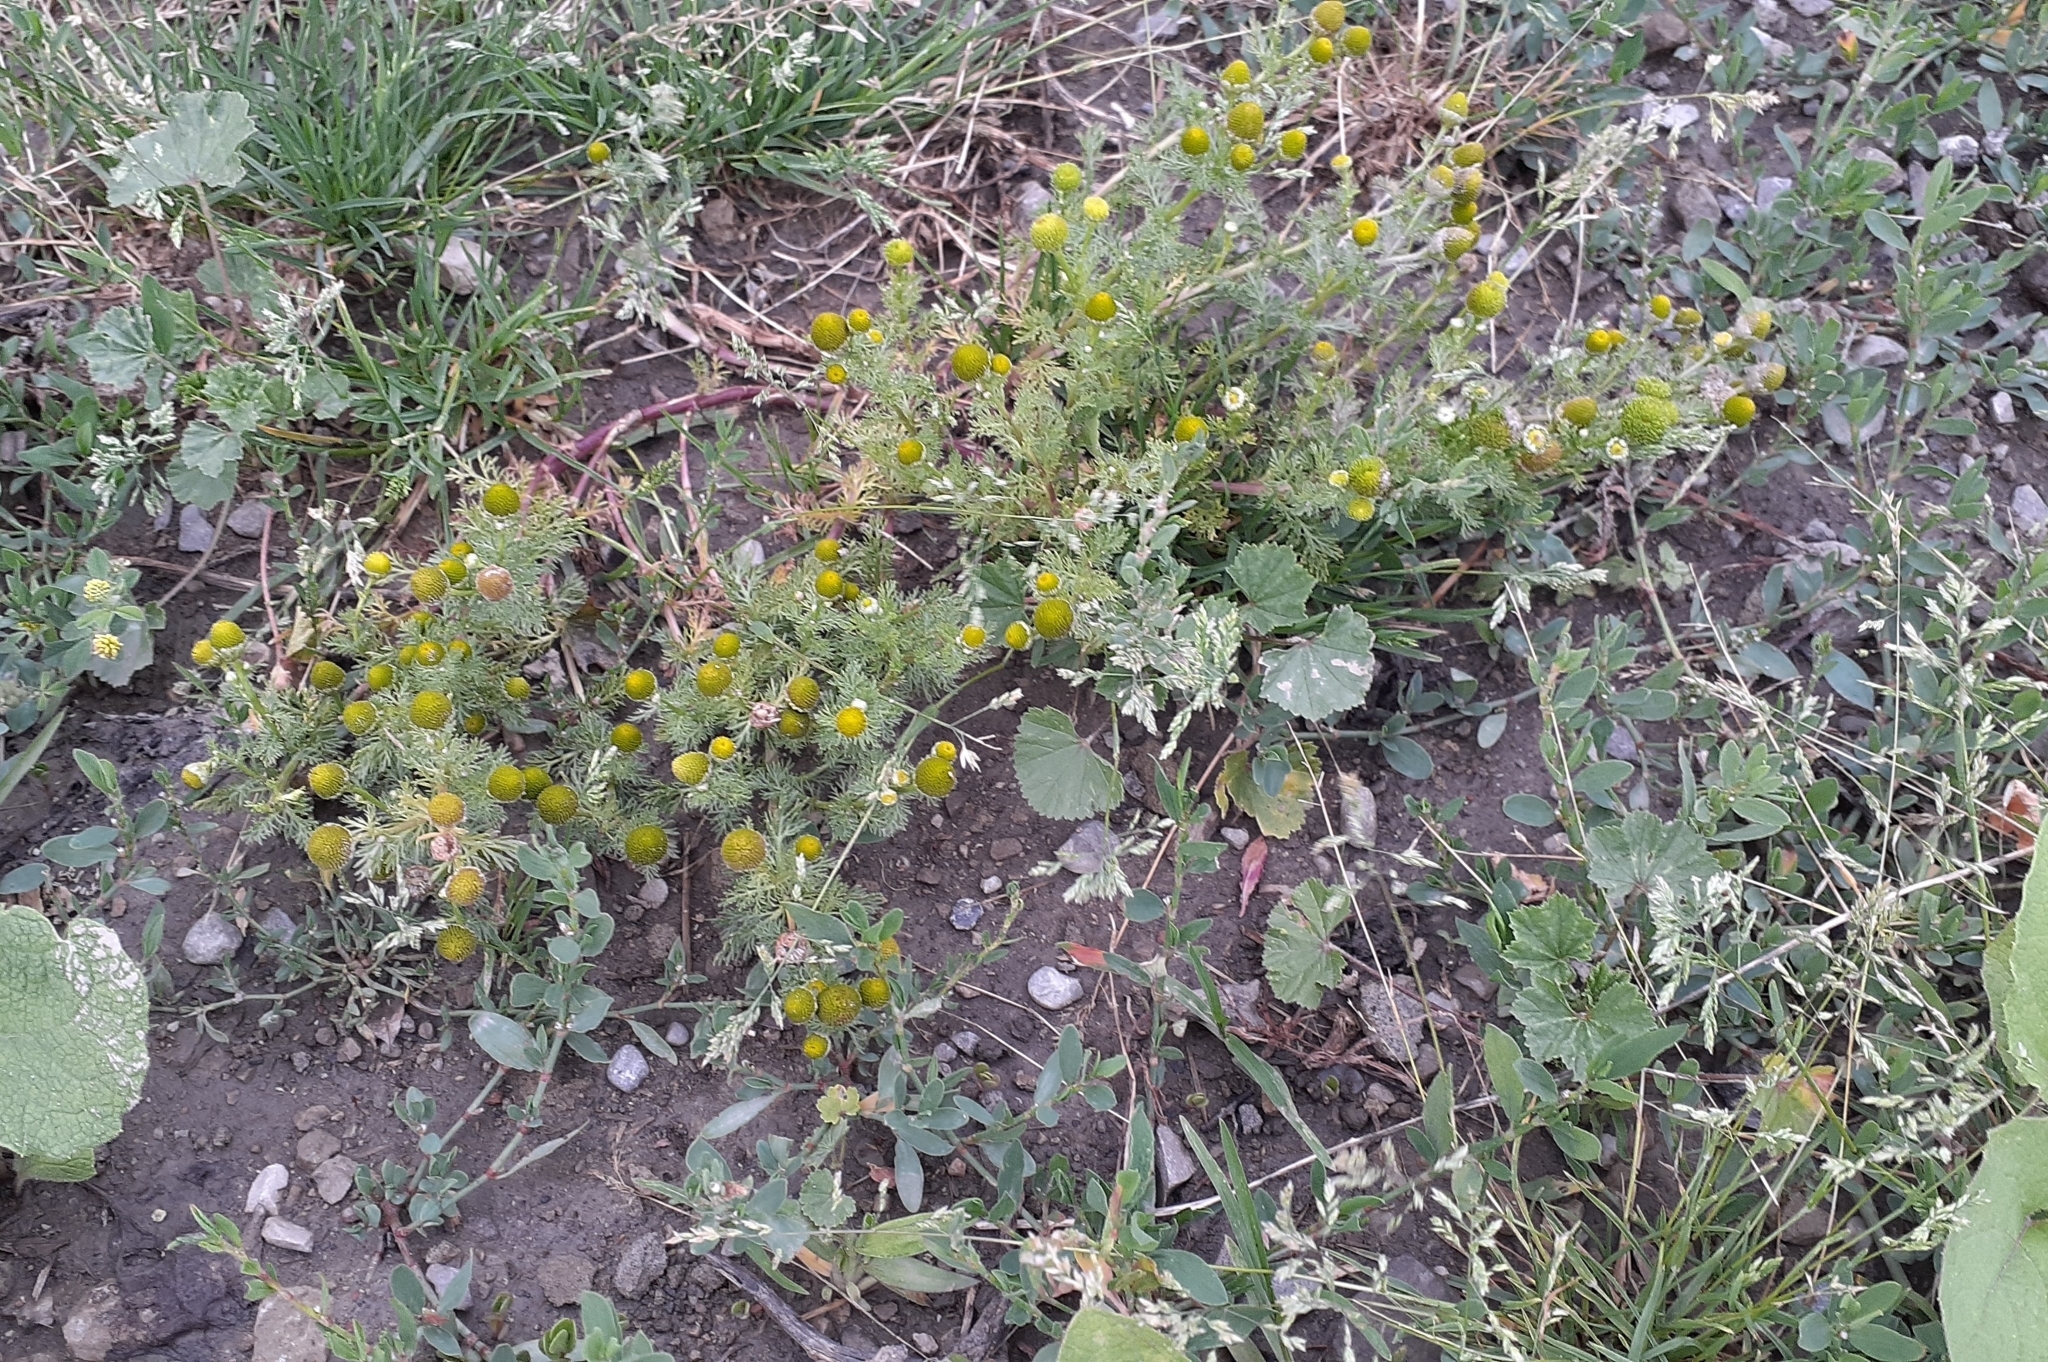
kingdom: Plantae
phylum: Tracheophyta
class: Magnoliopsida
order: Asterales
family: Asteraceae
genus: Matricaria
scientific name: Matricaria discoidea
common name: Disc mayweed
